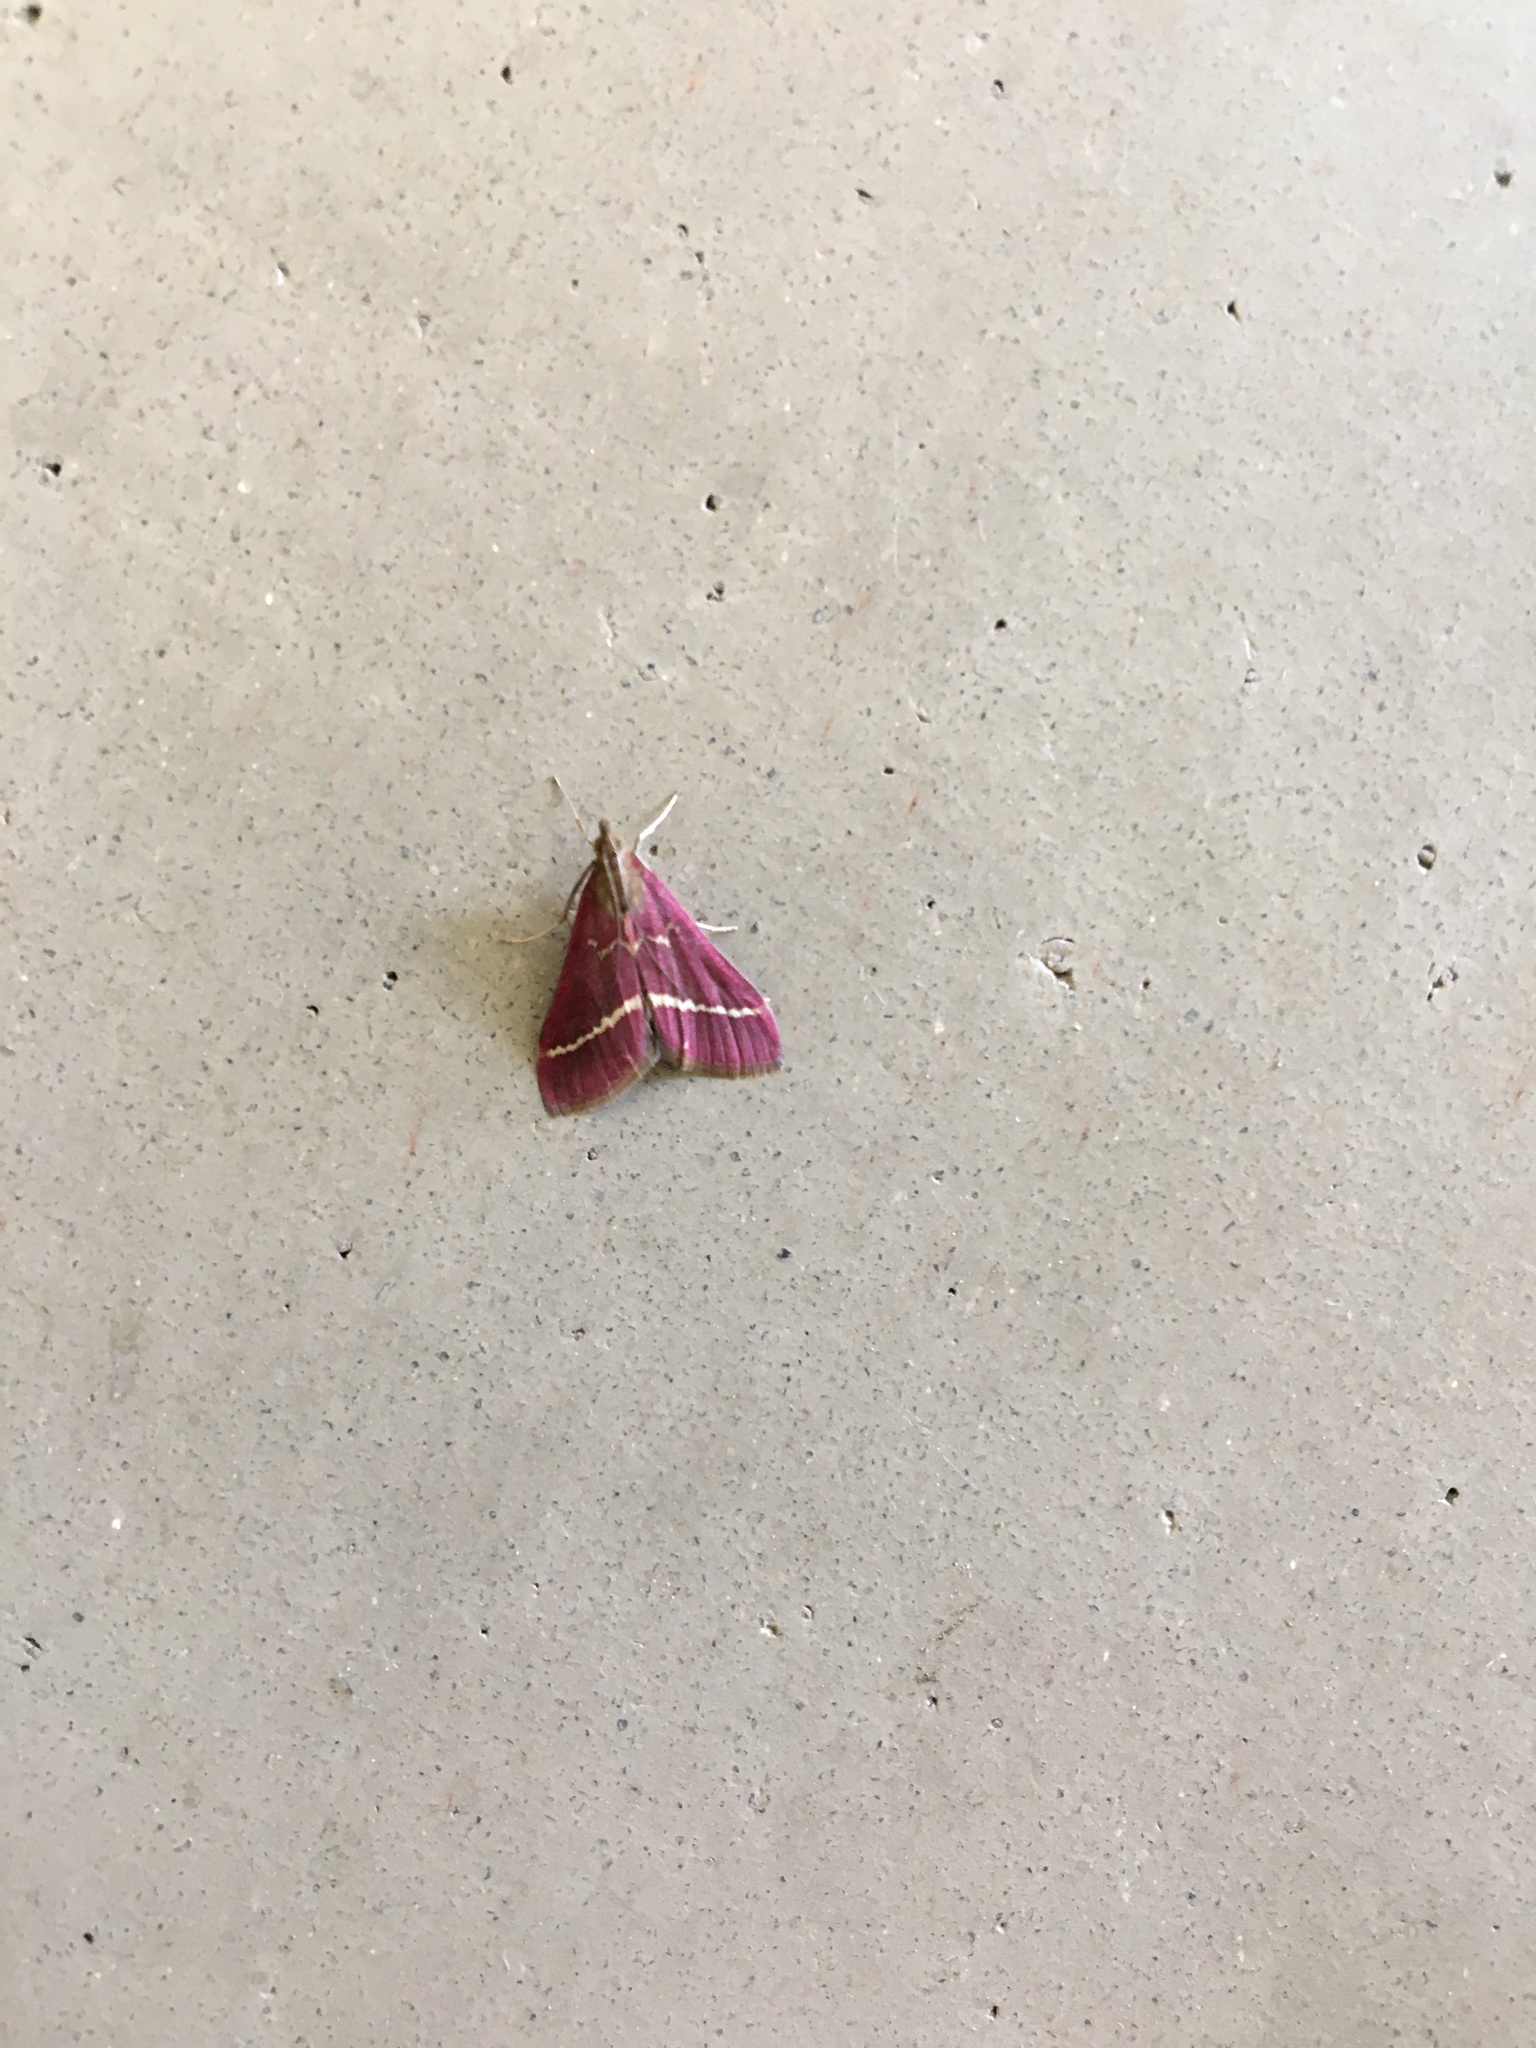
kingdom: Animalia
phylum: Arthropoda
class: Insecta
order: Lepidoptera
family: Crambidae
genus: Pyrausta
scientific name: Pyrausta volupialis
